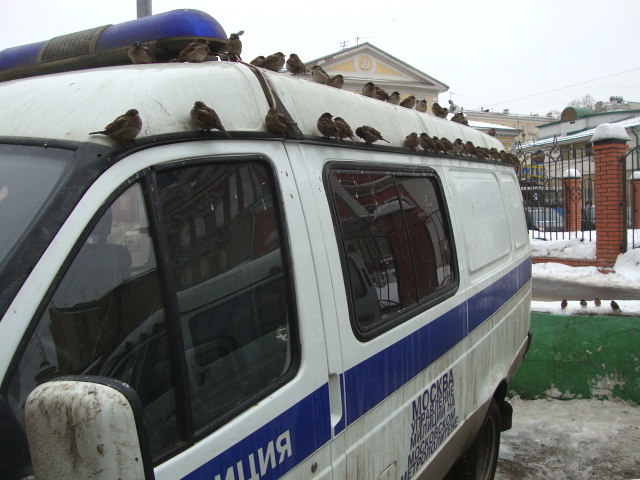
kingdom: Animalia
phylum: Chordata
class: Aves
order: Passeriformes
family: Passeridae
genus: Passer
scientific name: Passer domesticus
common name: House sparrow
